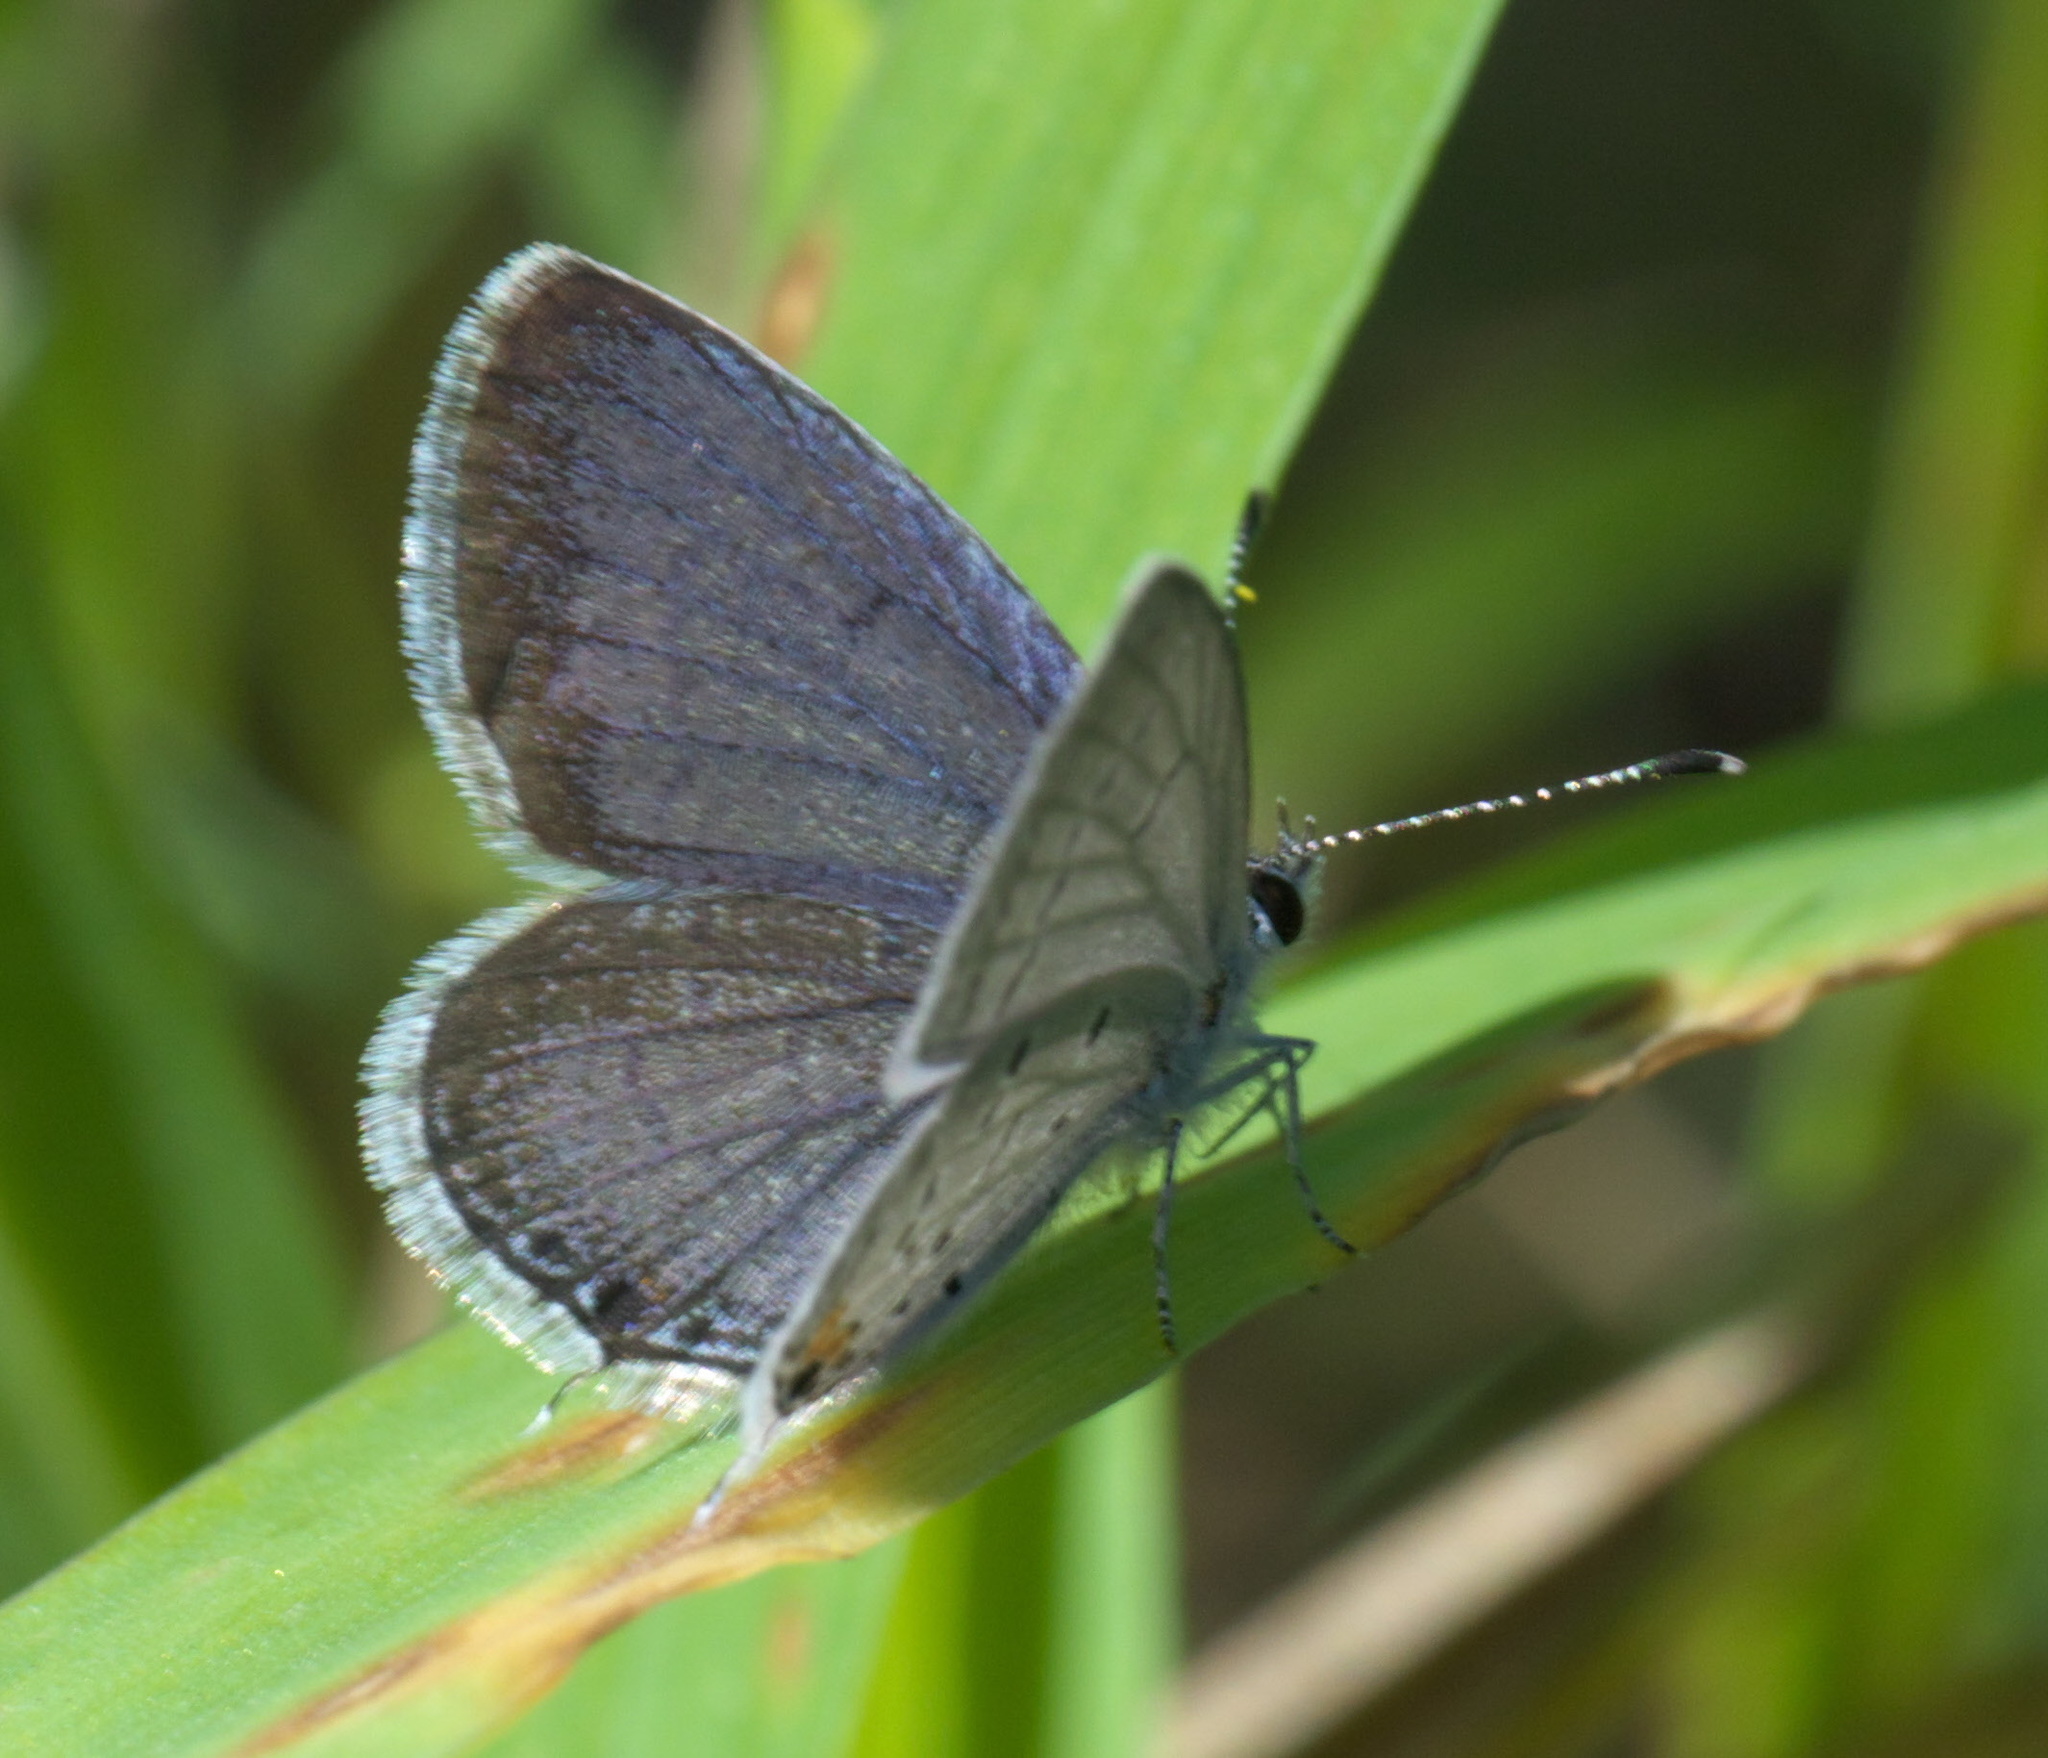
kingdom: Animalia
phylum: Arthropoda
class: Insecta
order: Lepidoptera
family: Lycaenidae
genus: Elkalyce
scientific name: Elkalyce comyntas
